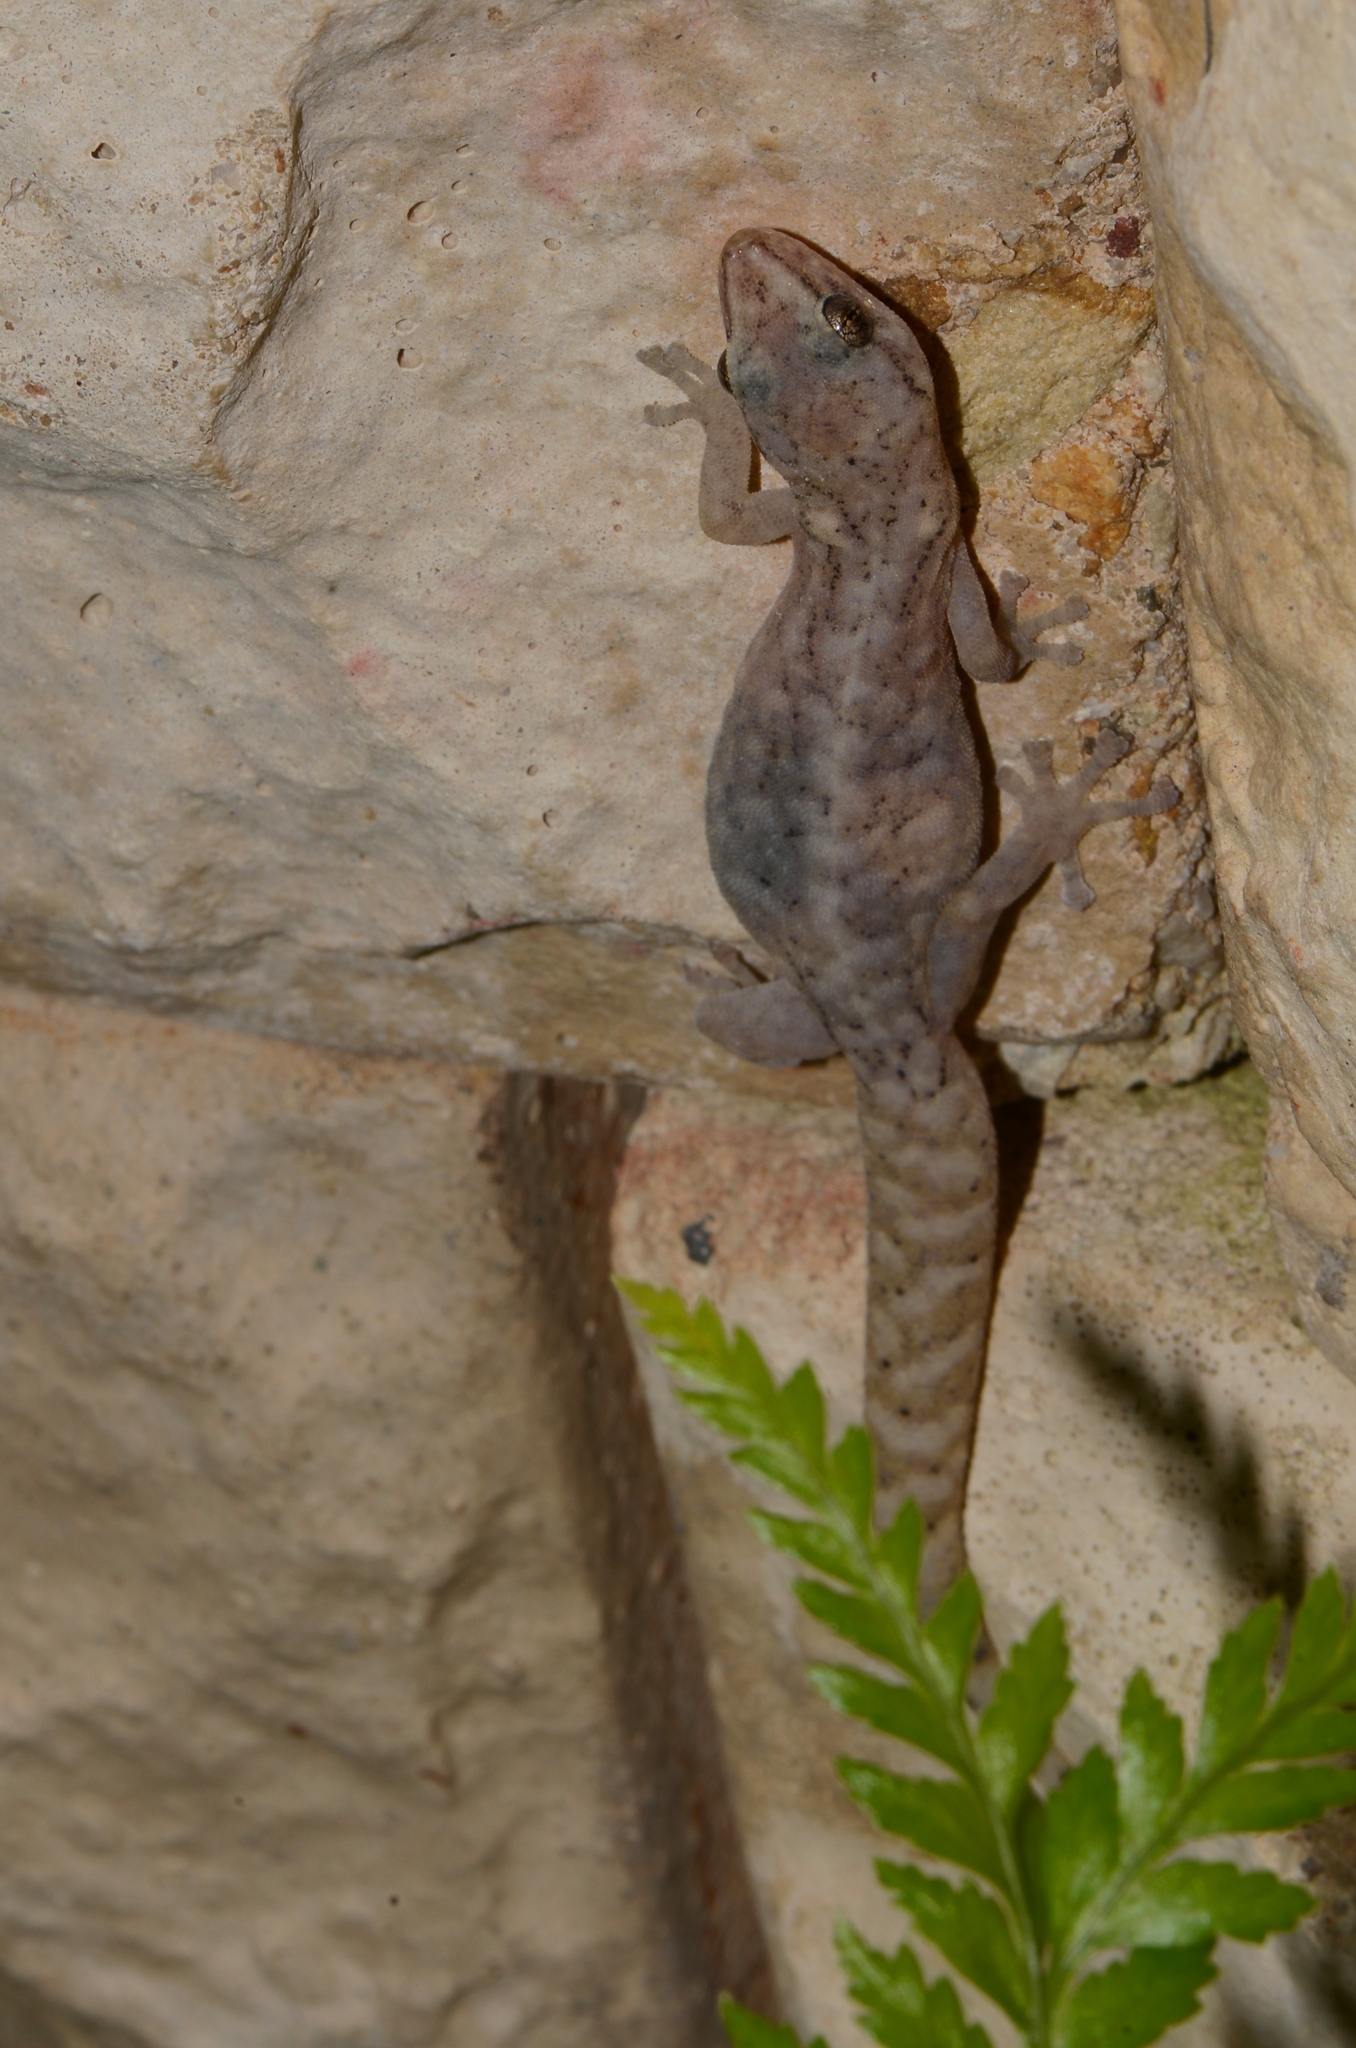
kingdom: Animalia
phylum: Chordata
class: Squamata
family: Gekkonidae
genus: Afrogecko
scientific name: Afrogecko porphyreus
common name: Marbled leaf-toed gecko
